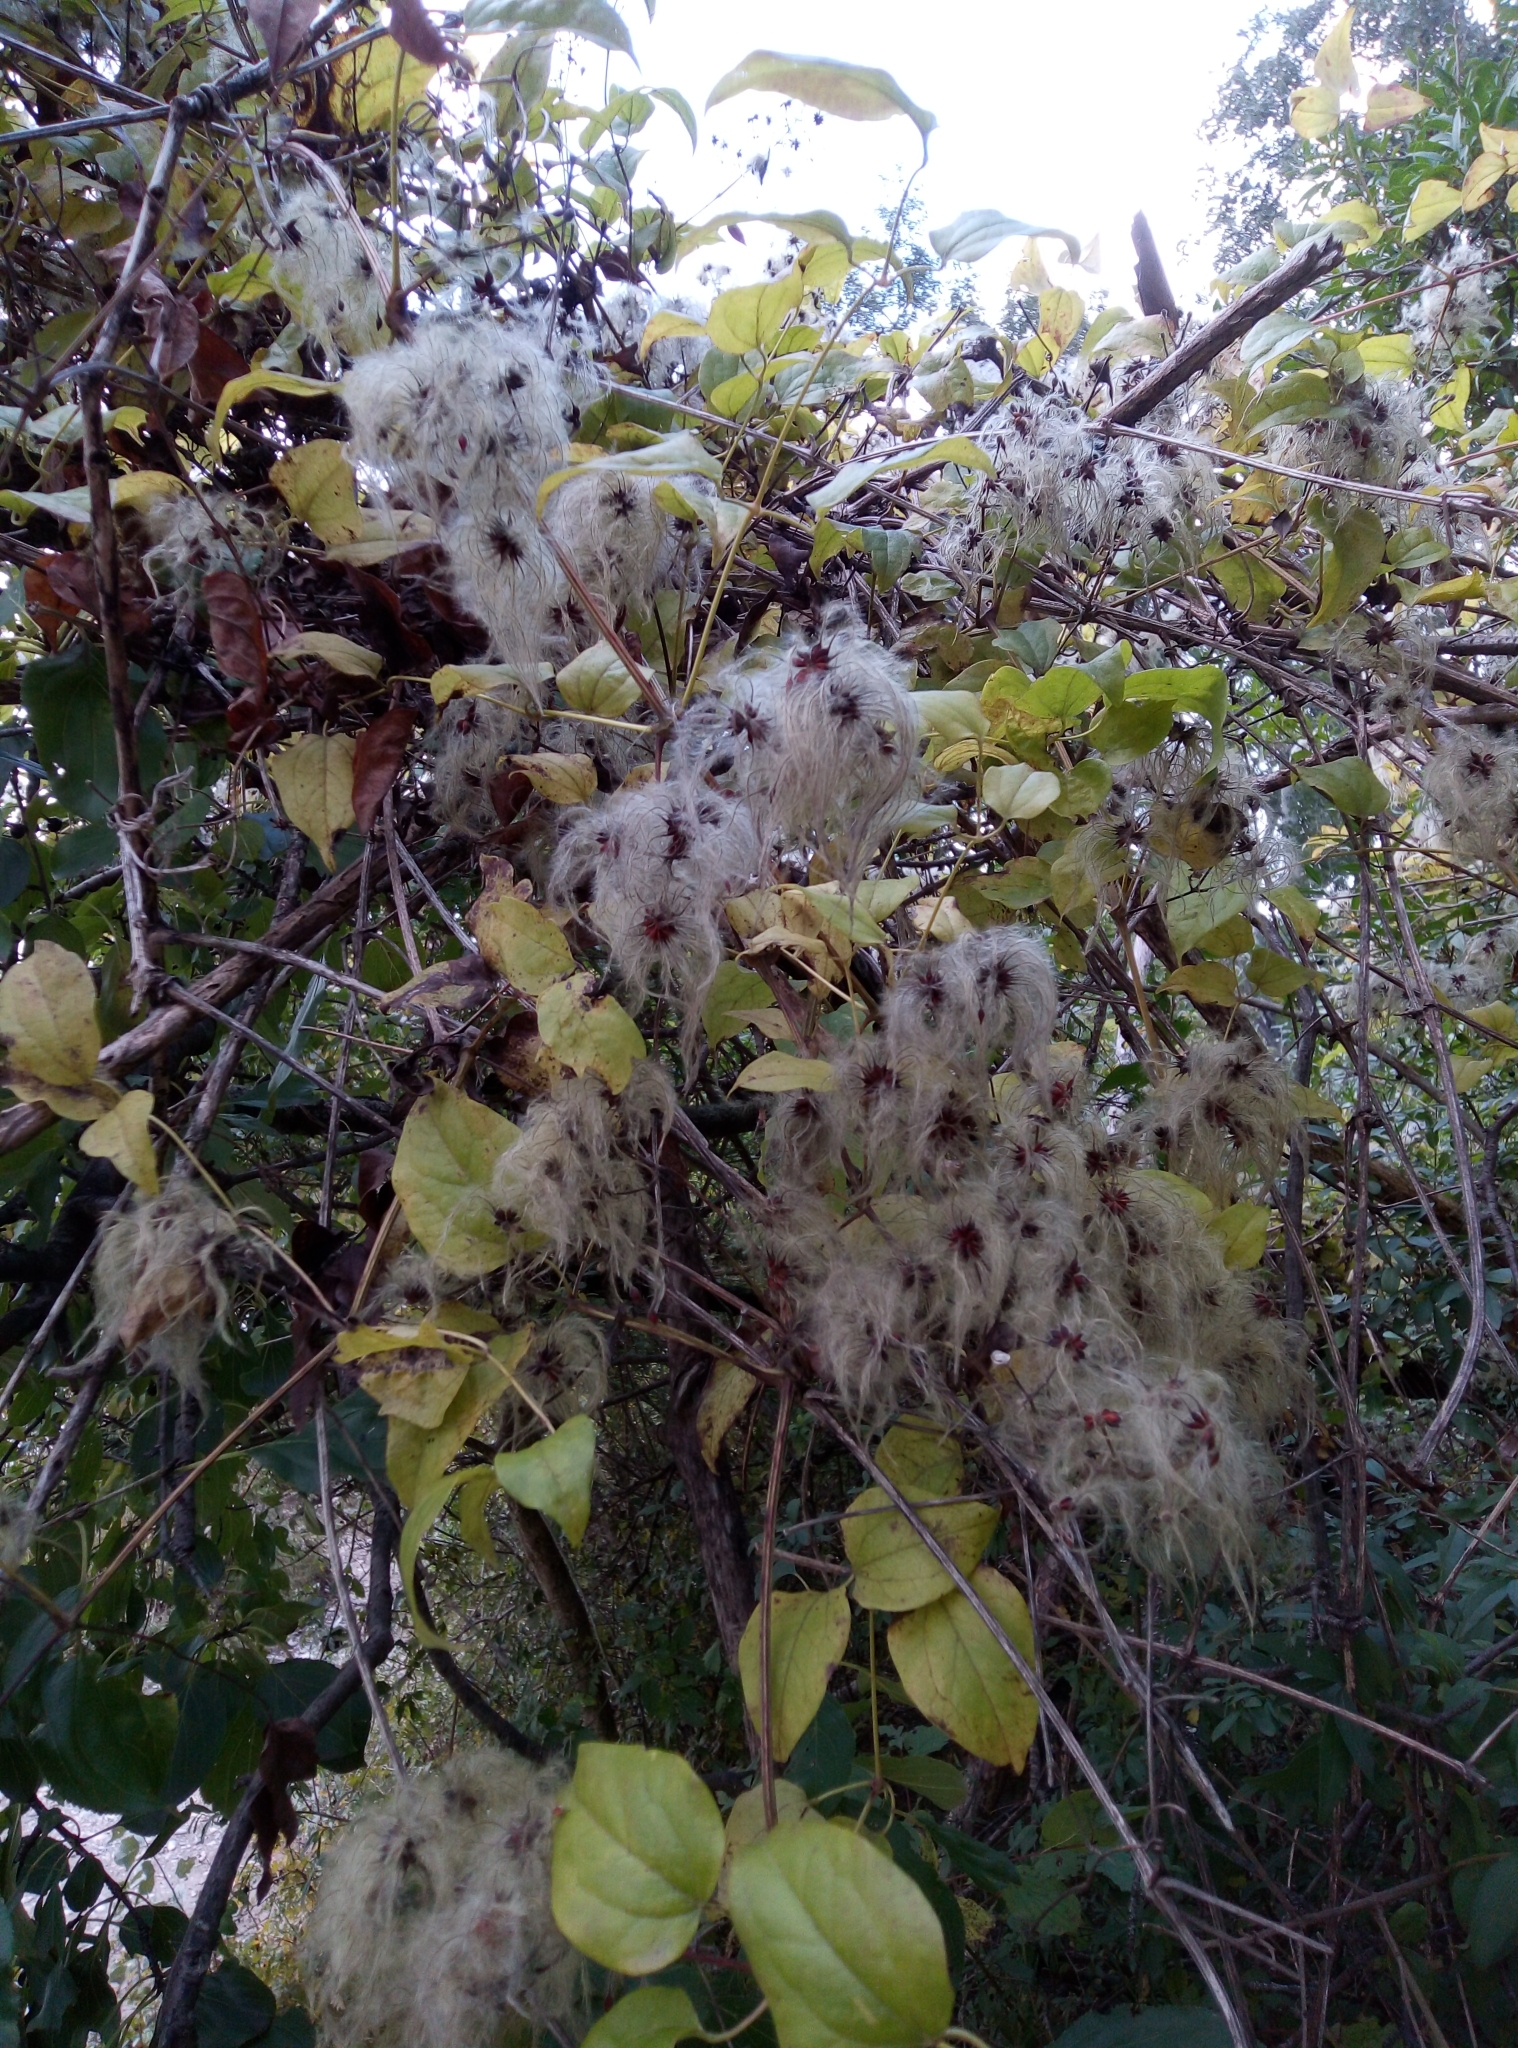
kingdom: Plantae
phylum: Tracheophyta
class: Magnoliopsida
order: Ranunculales
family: Ranunculaceae
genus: Clematis
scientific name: Clematis vitalba
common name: Evergreen clematis
